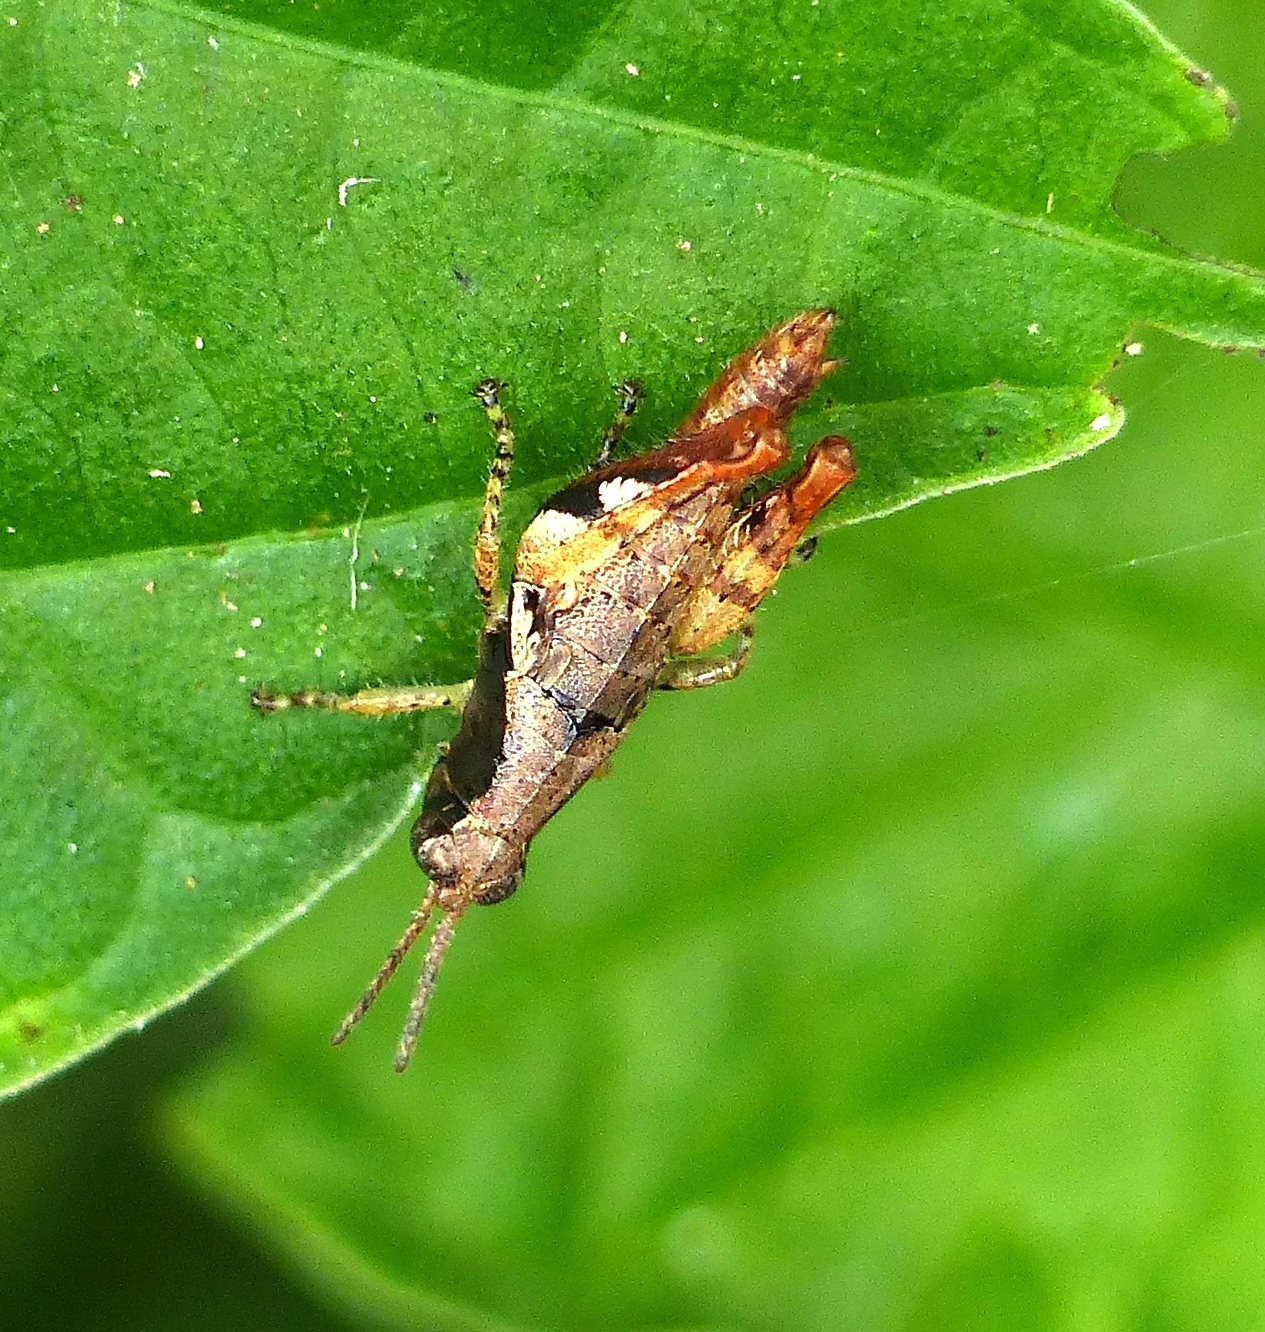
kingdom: Animalia
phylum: Arthropoda
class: Insecta
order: Orthoptera
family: Acrididae
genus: Eujivarus
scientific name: Eujivarus meridionalis
